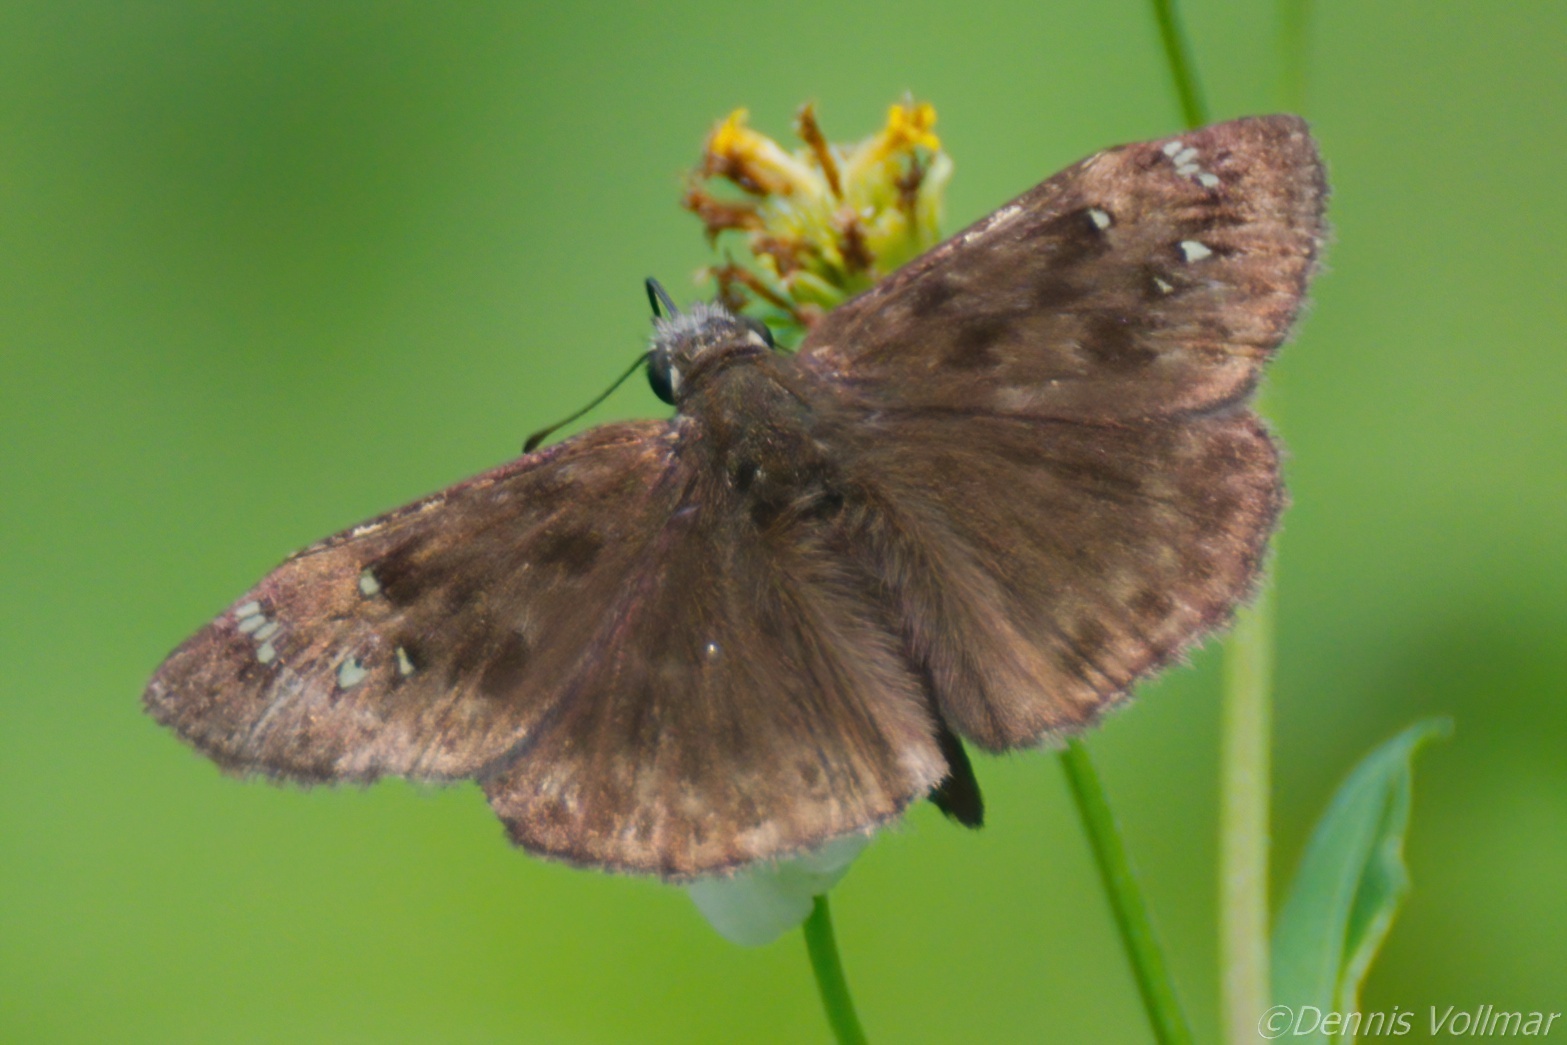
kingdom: Animalia
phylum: Arthropoda
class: Insecta
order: Lepidoptera
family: Hesperiidae
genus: Erynnis
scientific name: Erynnis horatius
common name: Horace's duskywing
